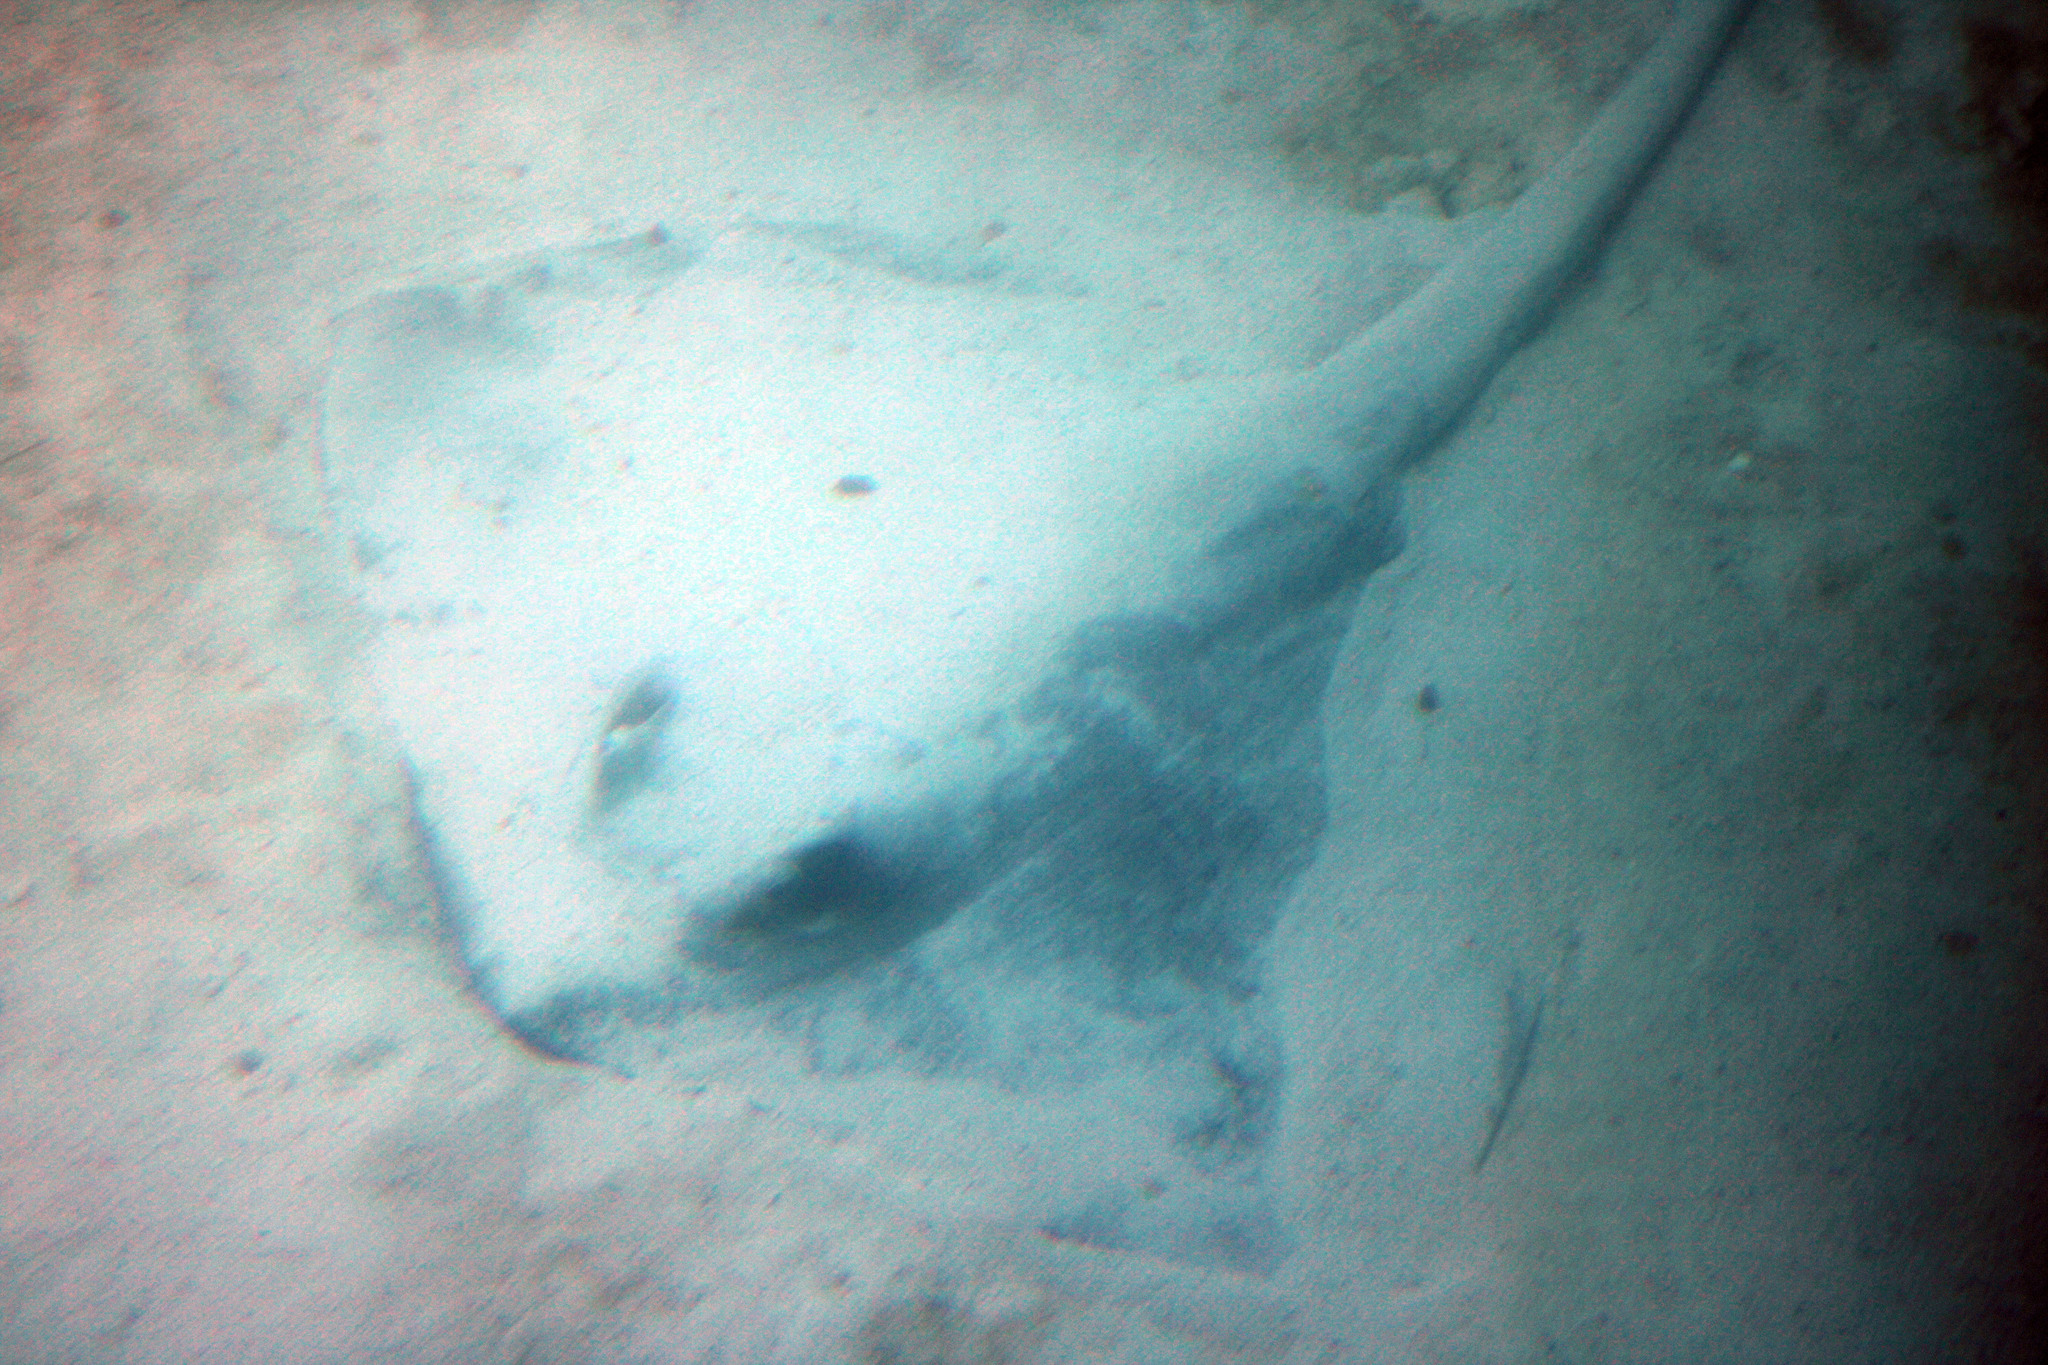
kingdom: Animalia
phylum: Chordata
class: Elasmobranchii
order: Myliobatiformes
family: Dasyatidae
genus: Pastinachus
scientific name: Pastinachus ater
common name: Banana-tail ray
